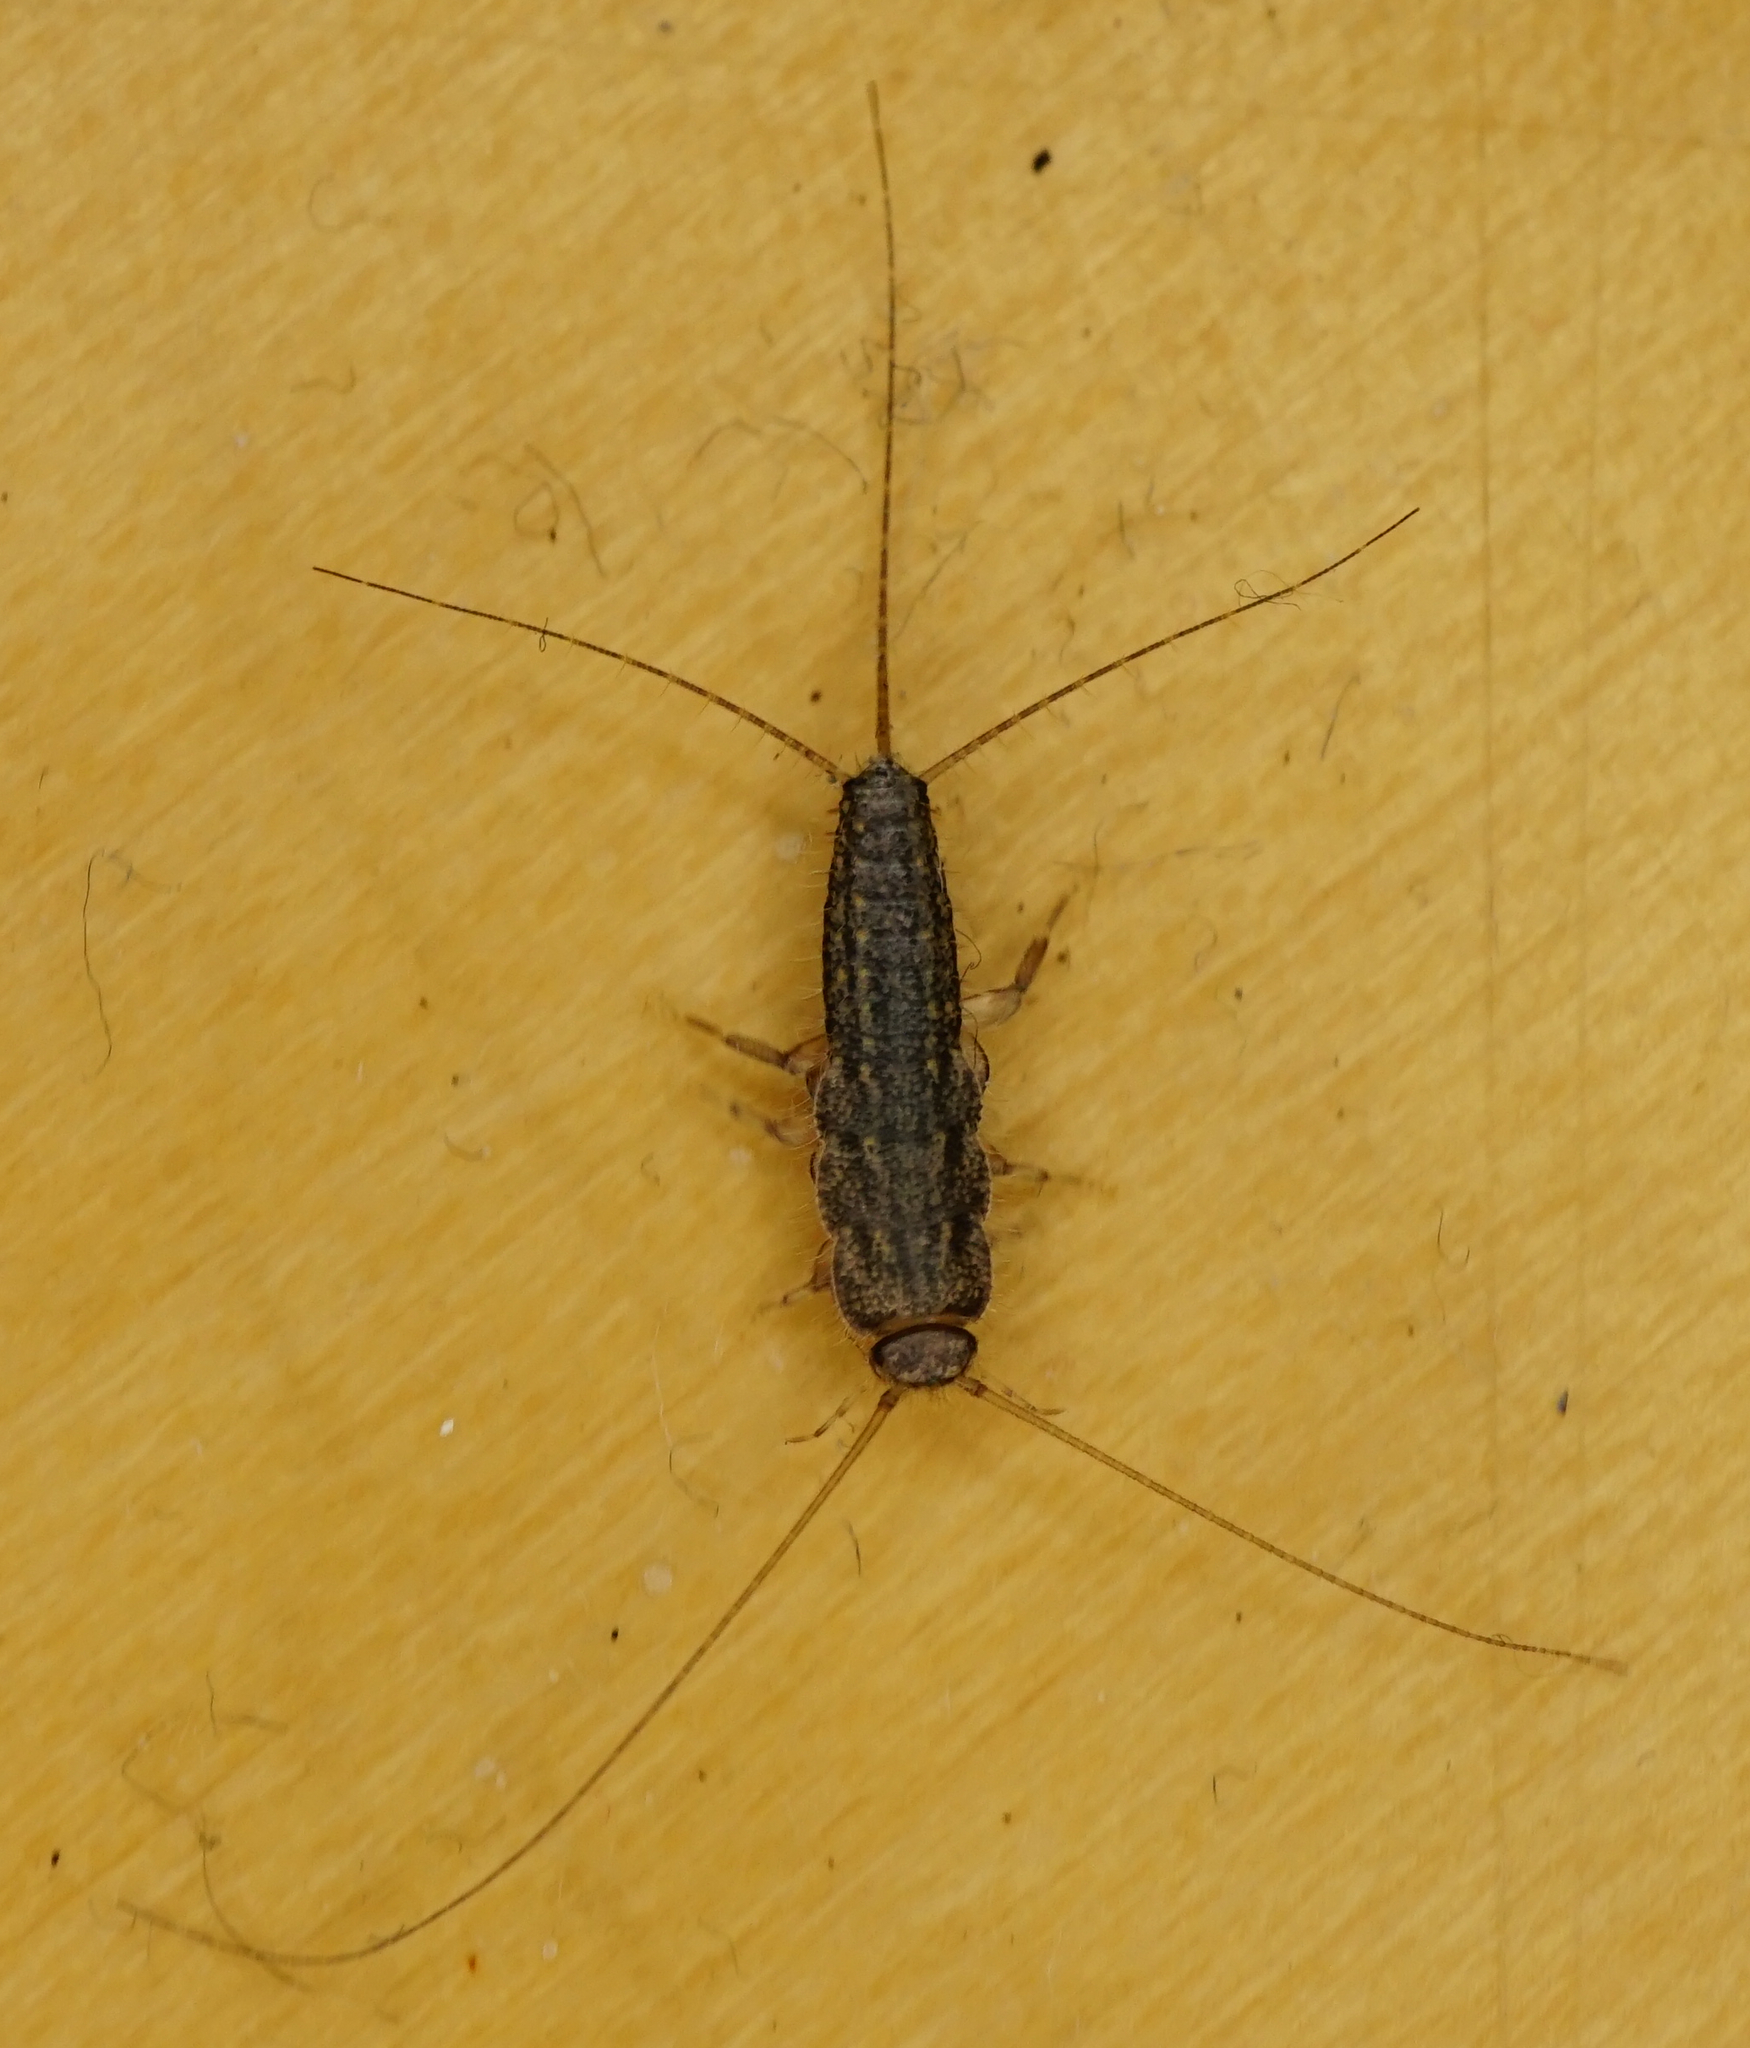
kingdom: Animalia
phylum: Arthropoda
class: Insecta
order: Zygentoma
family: Lepismatidae
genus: Ctenolepisma
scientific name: Ctenolepisma lineata
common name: Four-lined silverfish
